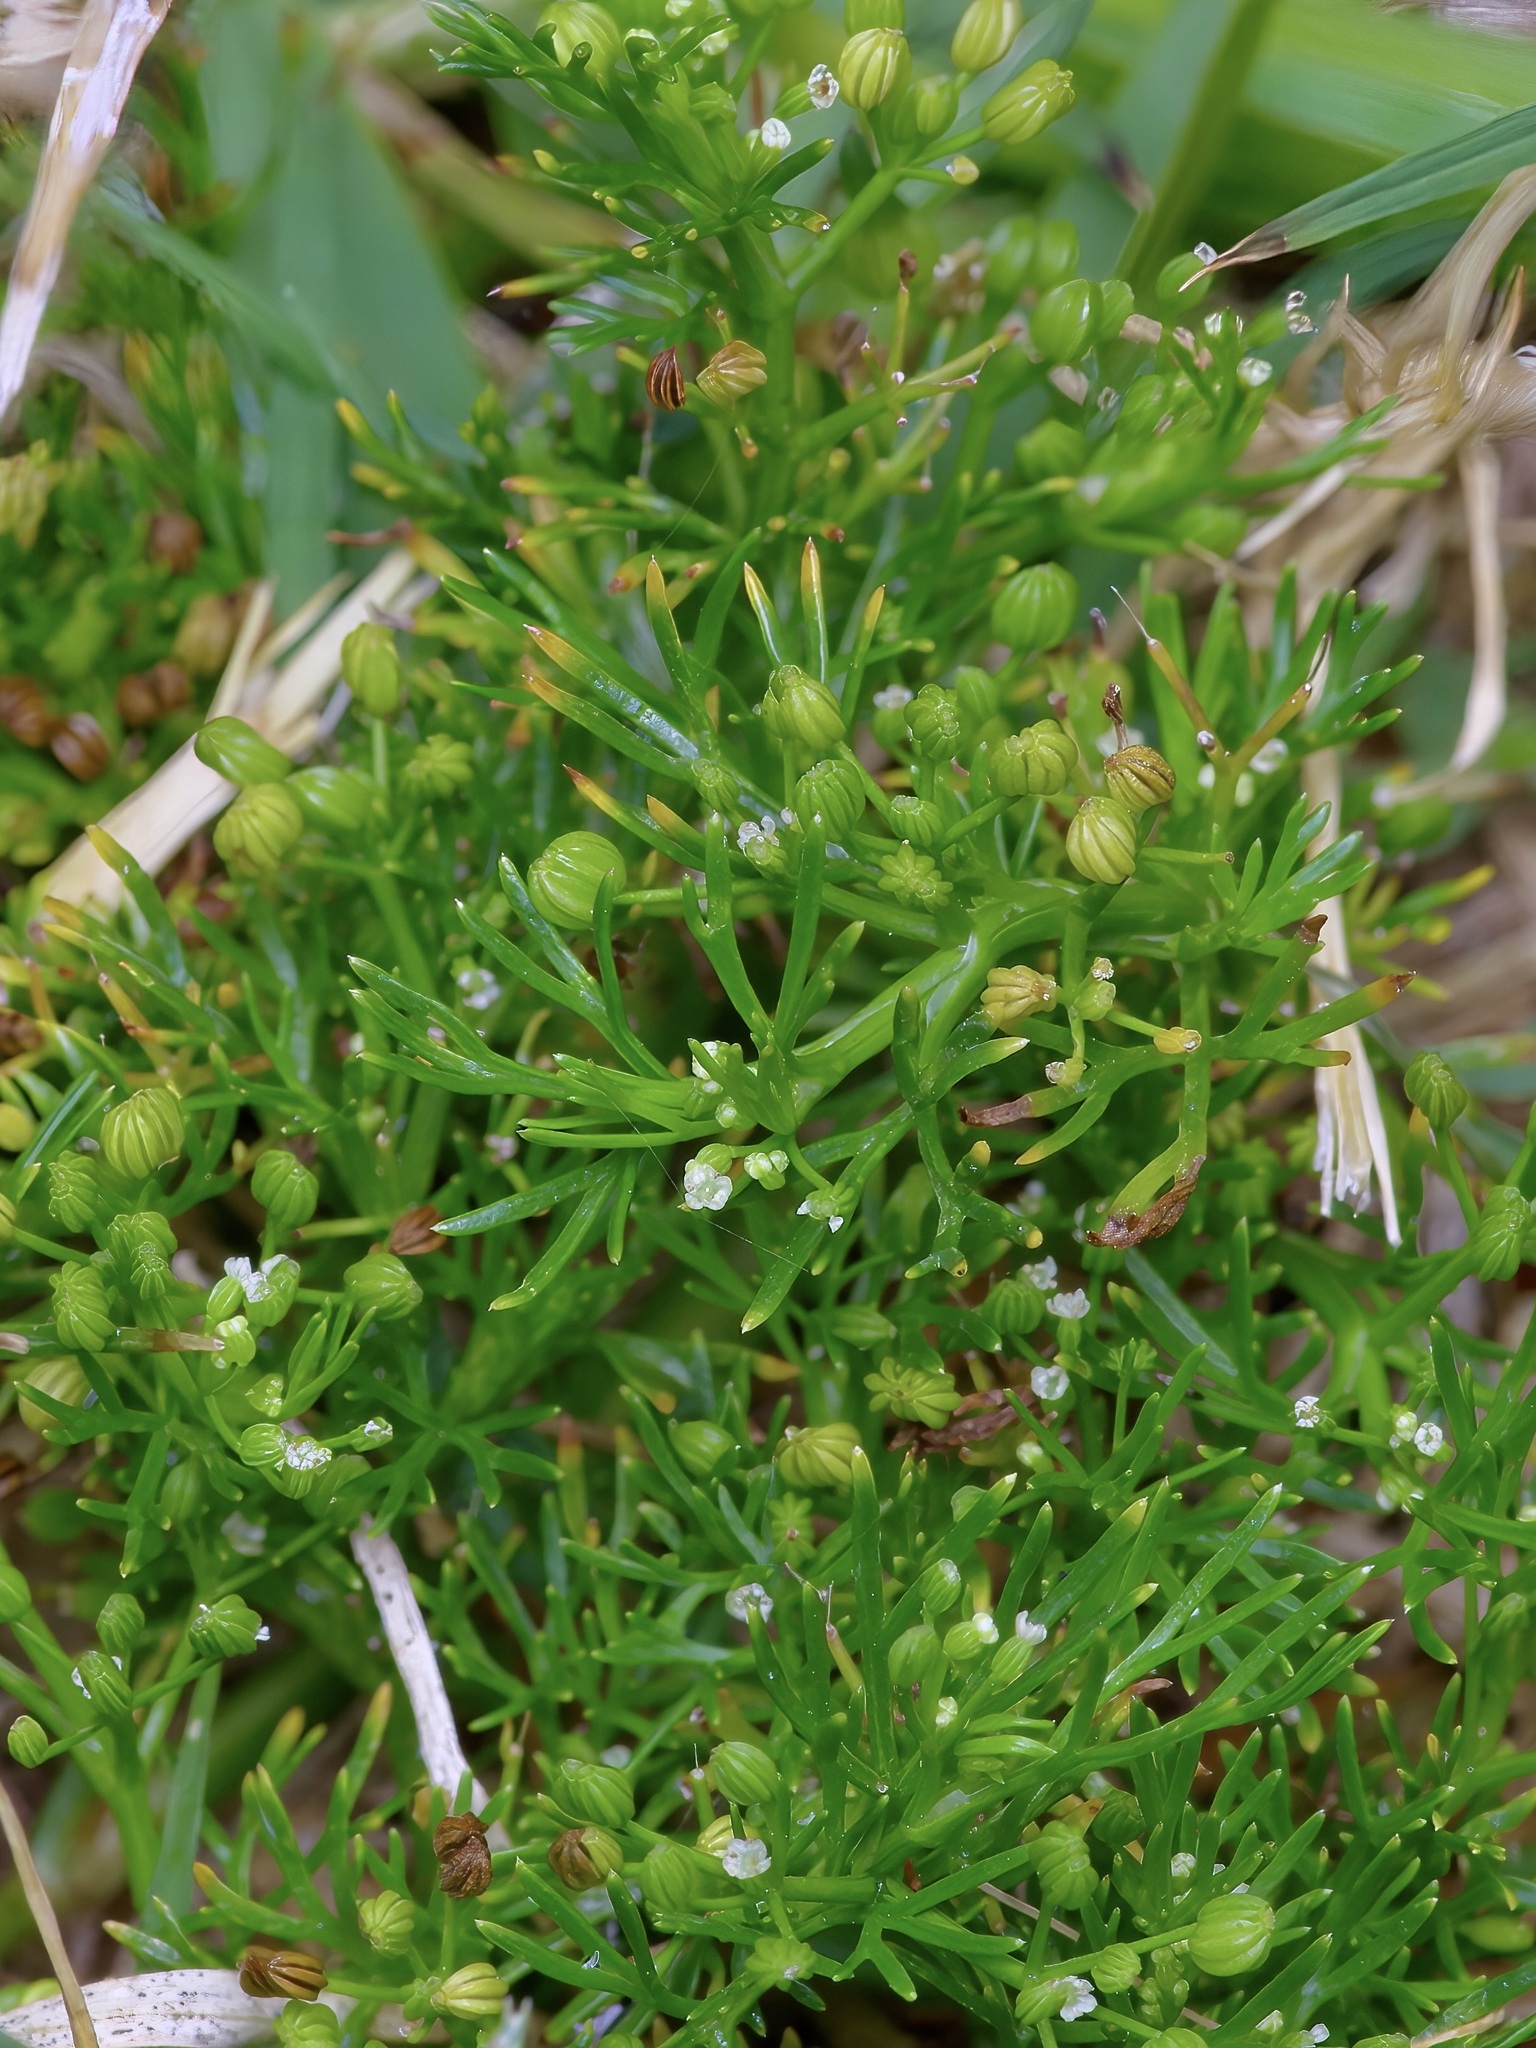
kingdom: Plantae
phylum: Tracheophyta
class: Magnoliopsida
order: Apiales
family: Apiaceae
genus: Cyclospermum
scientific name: Cyclospermum leptophyllum
